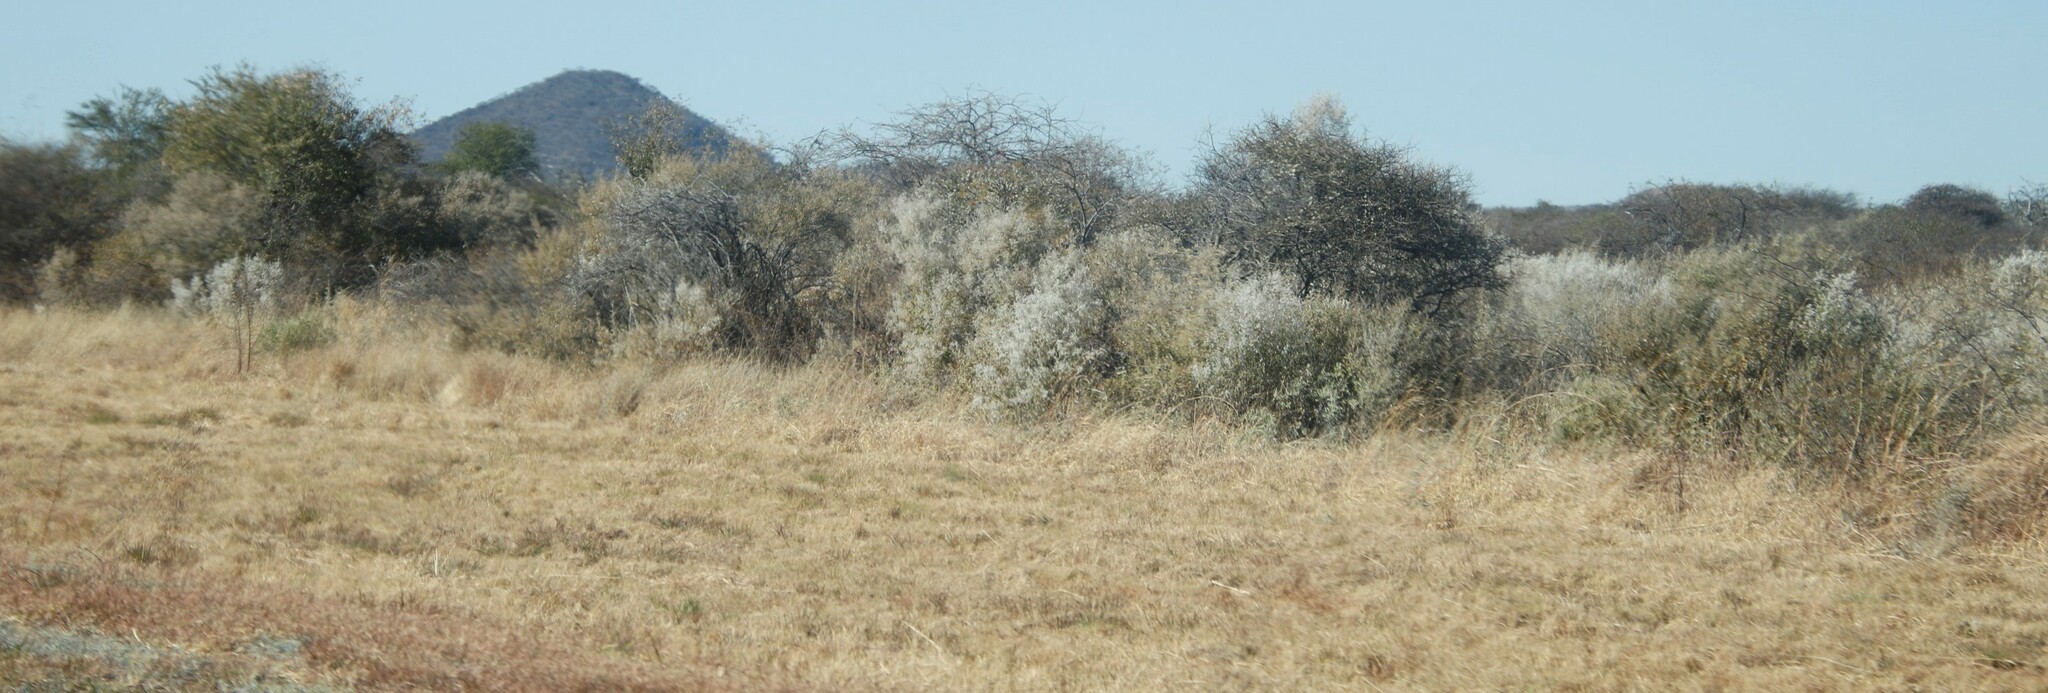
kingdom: Plantae
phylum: Tracheophyta
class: Magnoliopsida
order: Asterales
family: Asteraceae
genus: Tarchonanthus
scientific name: Tarchonanthus camphoratus
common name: Camphorwood
